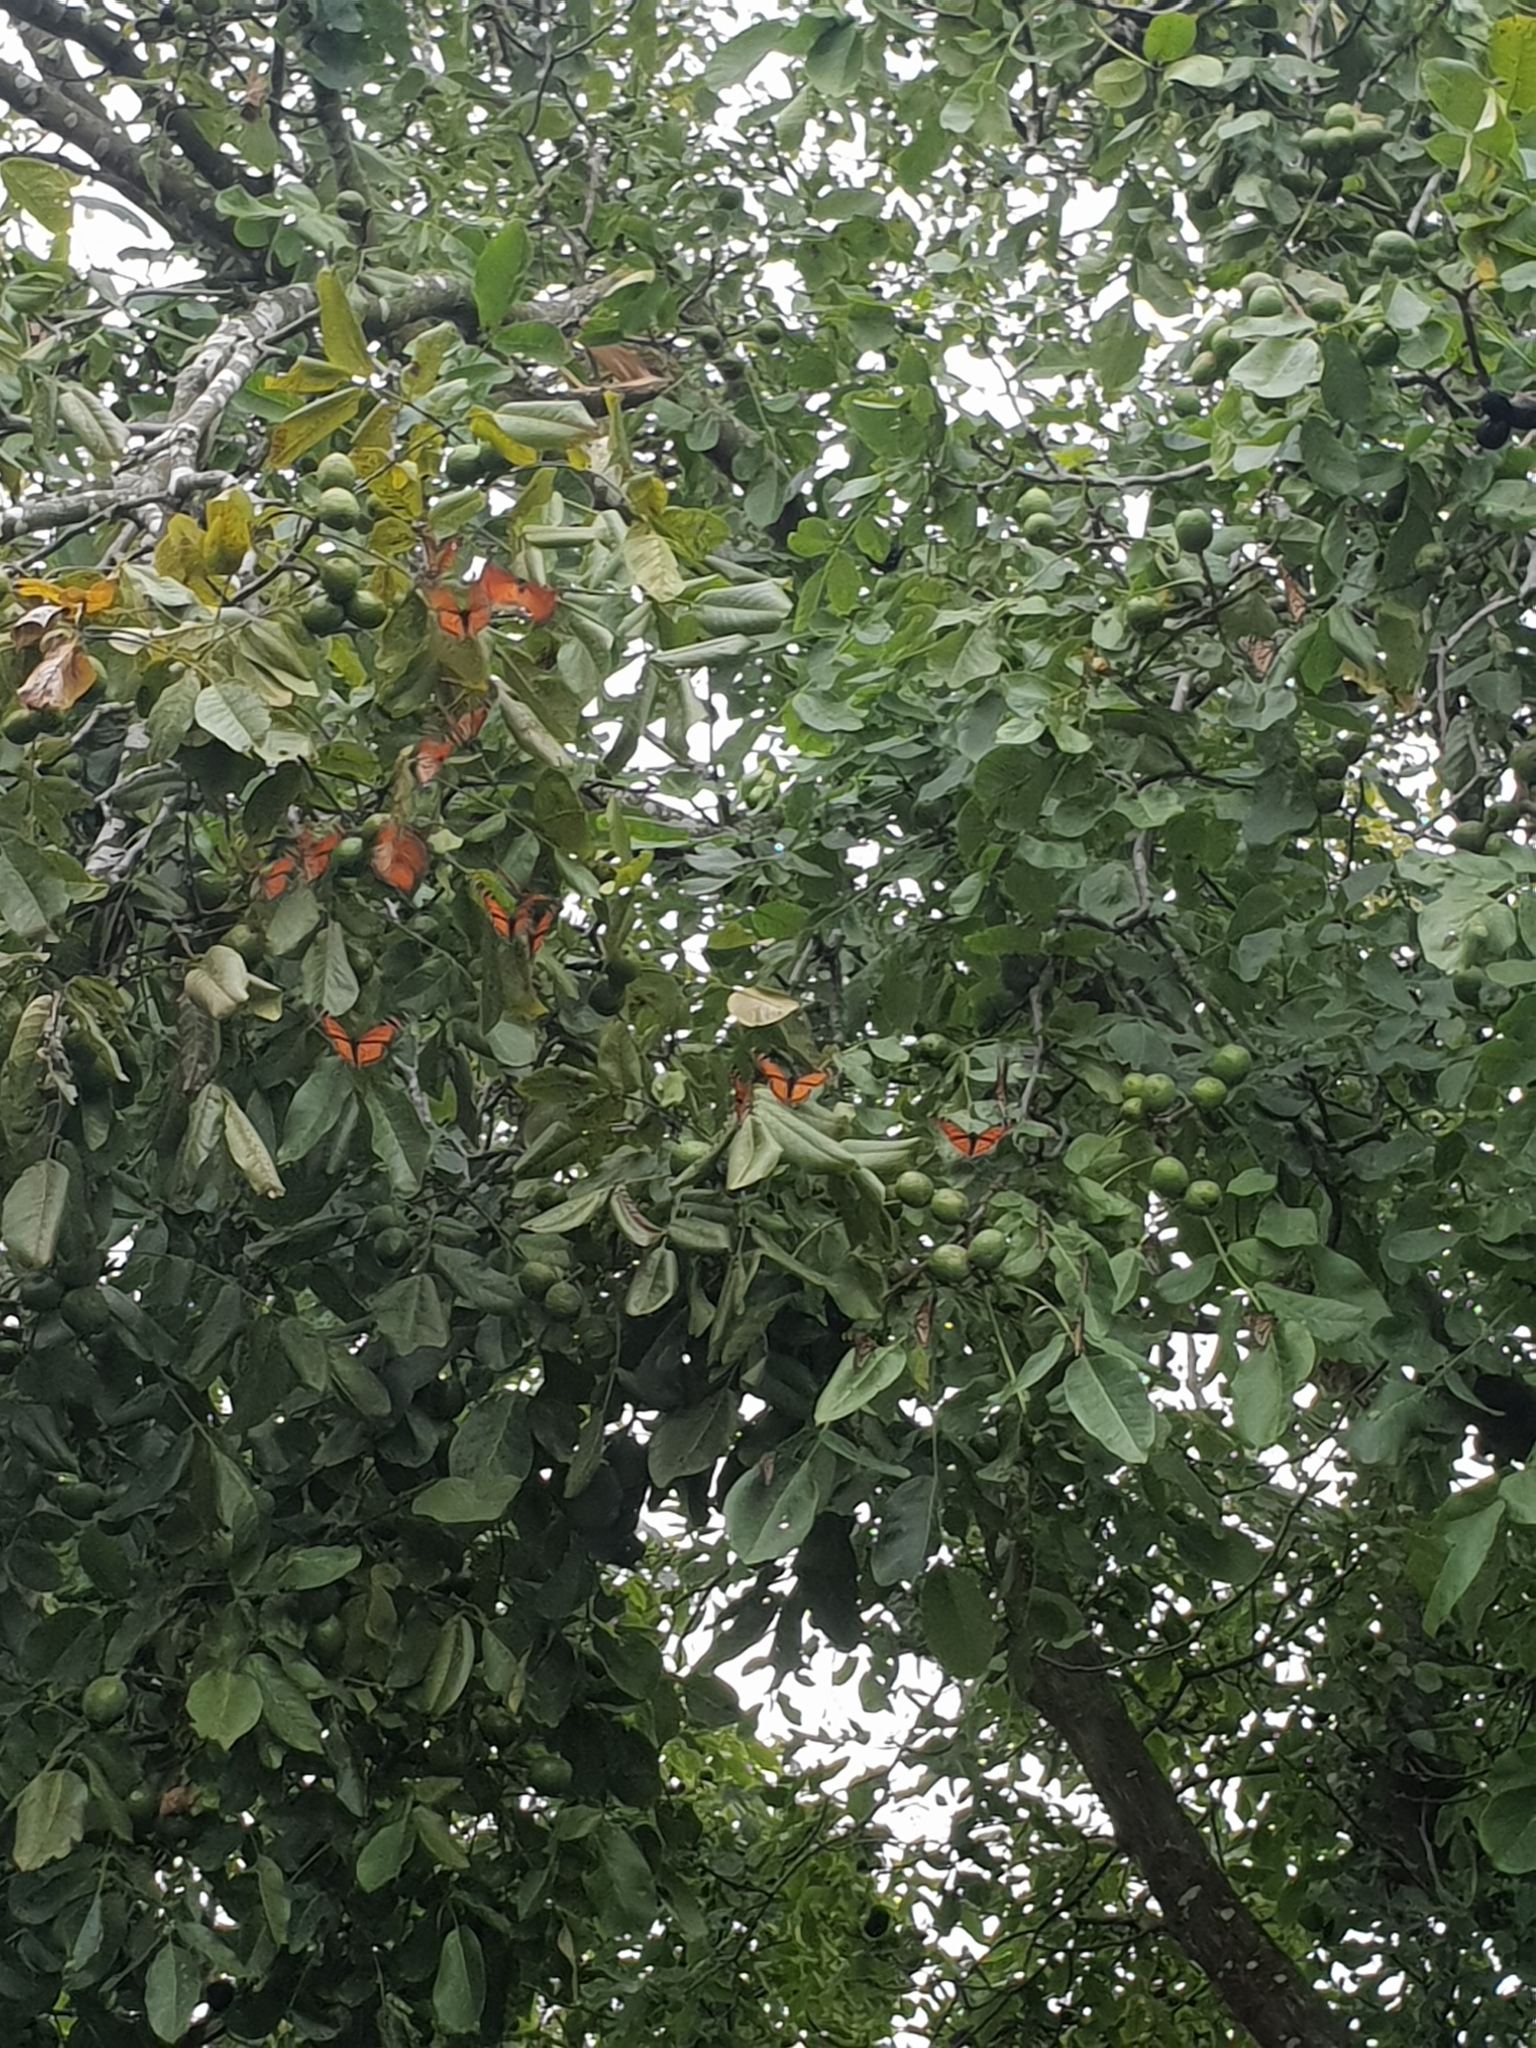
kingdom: Animalia
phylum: Arthropoda
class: Insecta
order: Lepidoptera
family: Nymphalidae
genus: Danaus
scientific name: Danaus plexippus
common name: Monarch
